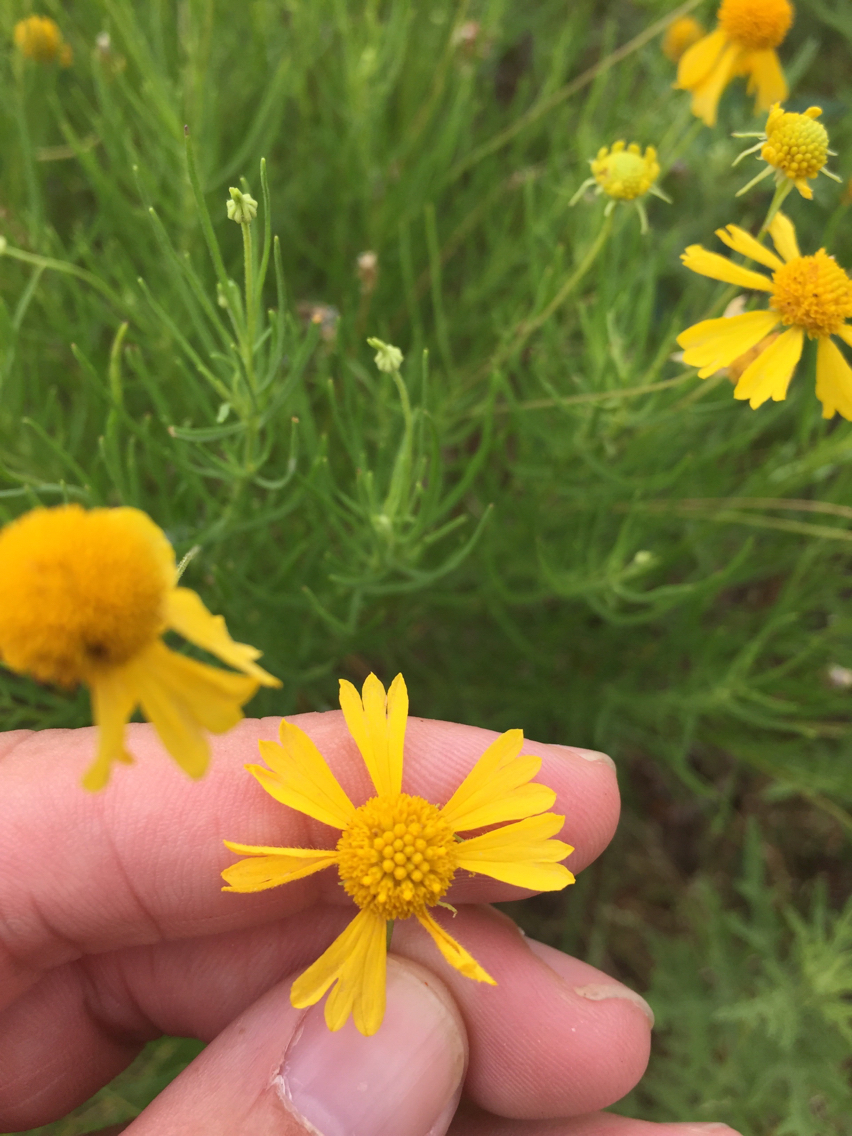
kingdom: Plantae
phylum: Tracheophyta
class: Magnoliopsida
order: Asterales
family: Asteraceae
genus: Helenium
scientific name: Helenium amarum
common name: Bitter sneezeweed
